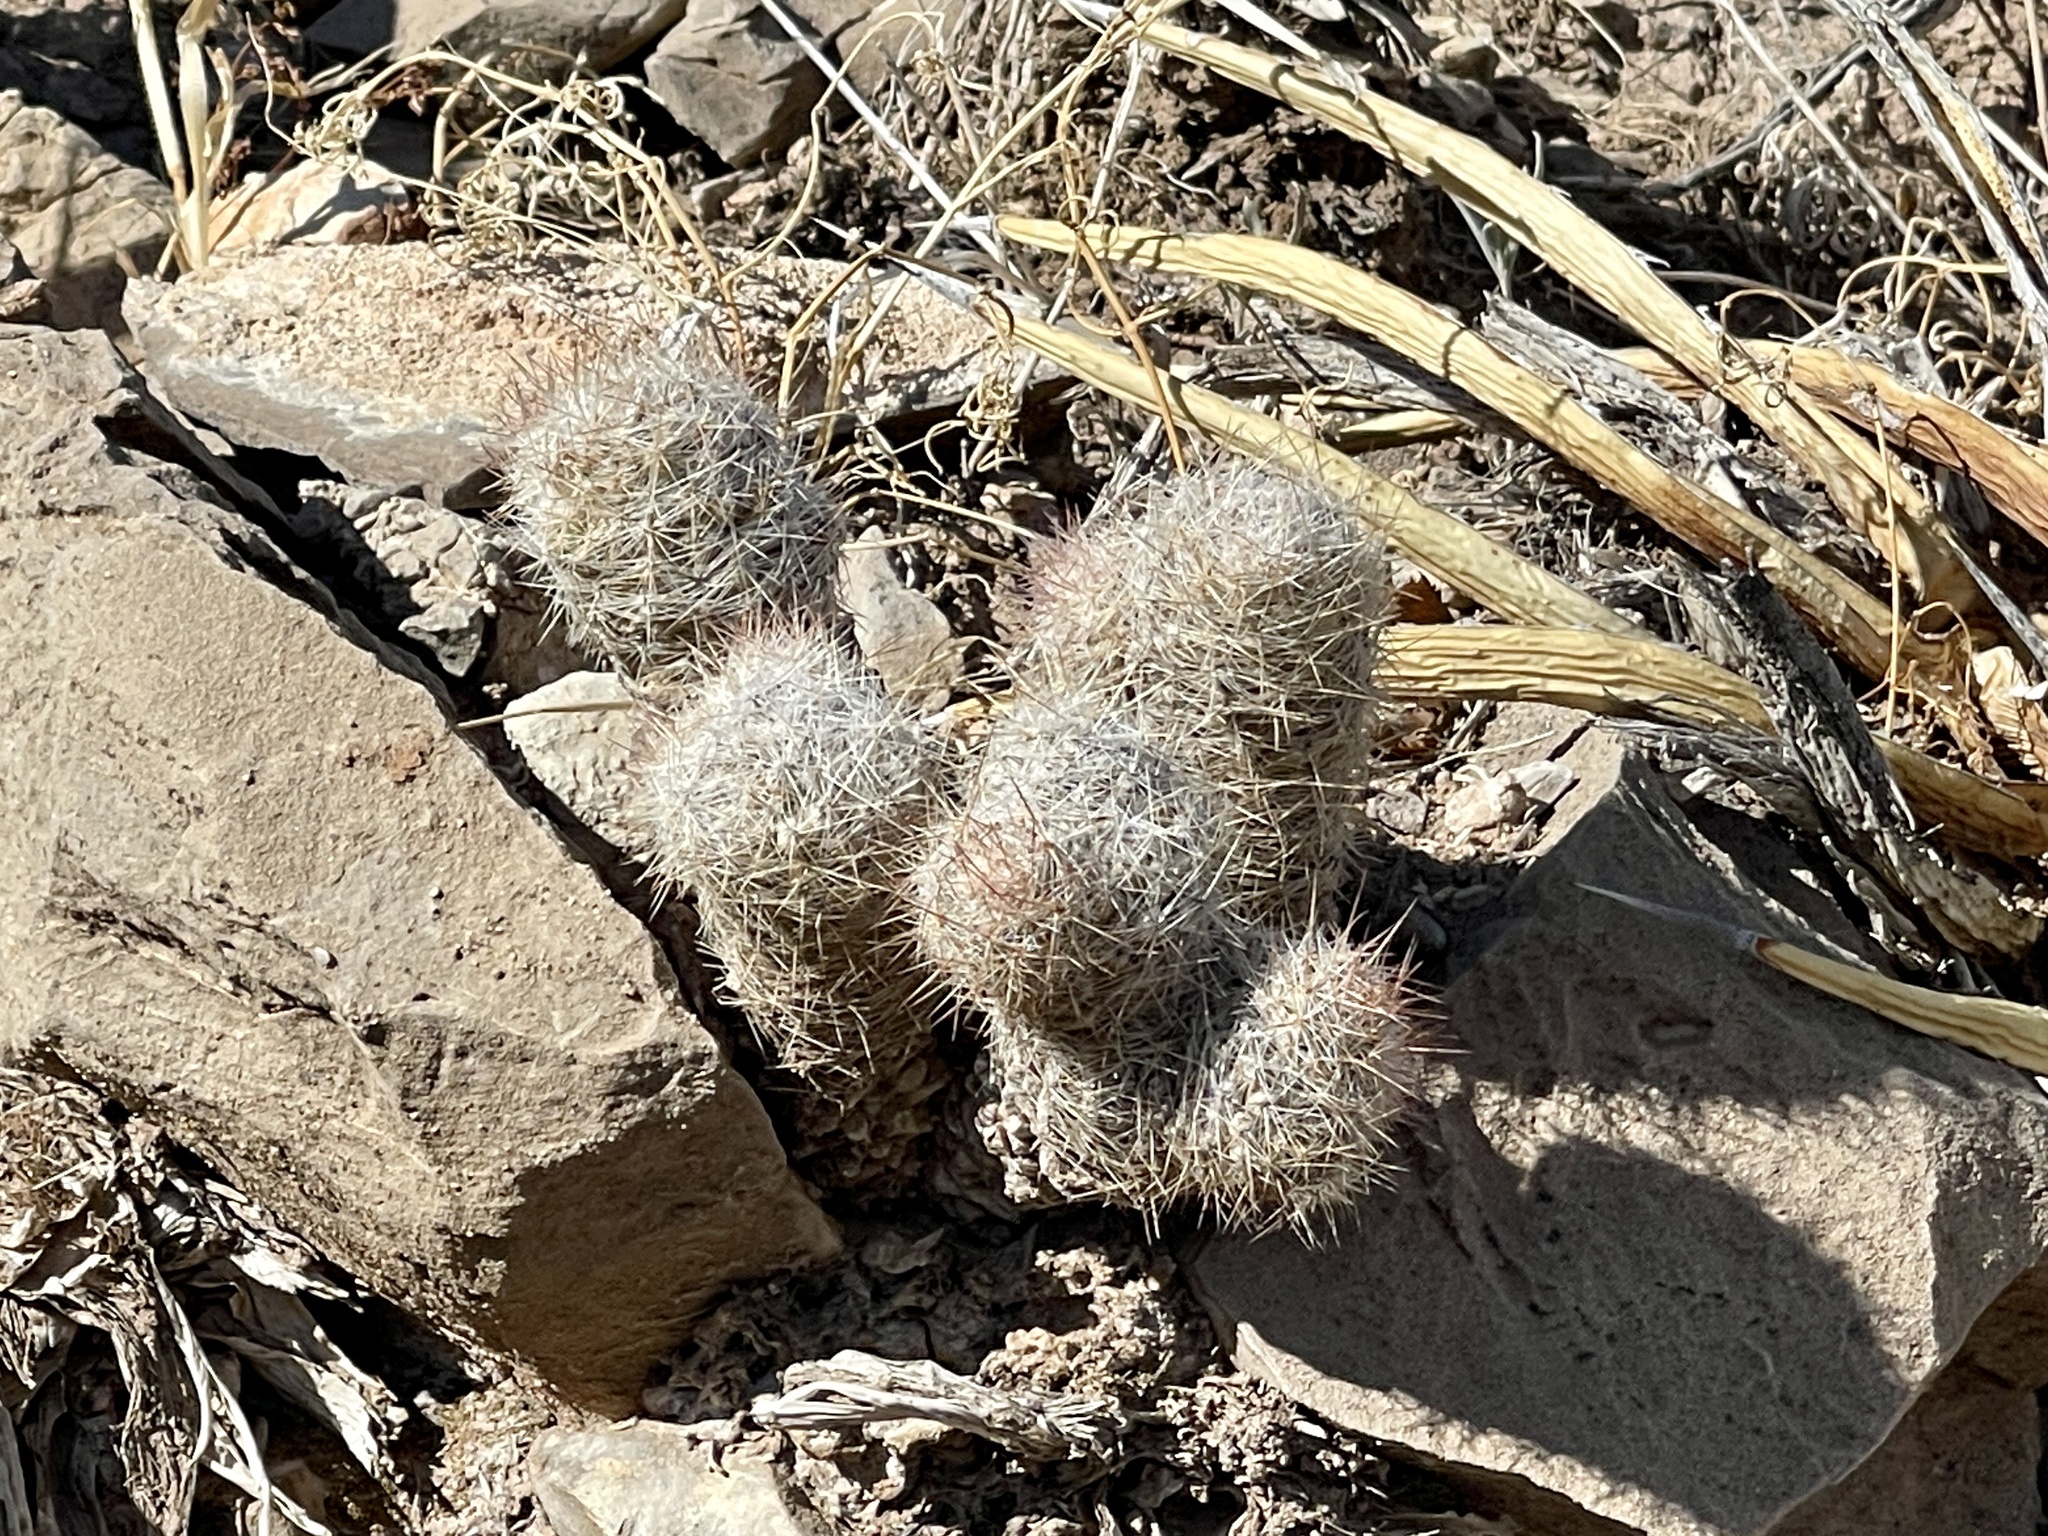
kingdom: Plantae
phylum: Tracheophyta
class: Magnoliopsida
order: Caryophyllales
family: Cactaceae
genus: Pelecyphora
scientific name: Pelecyphora tuberculosa
